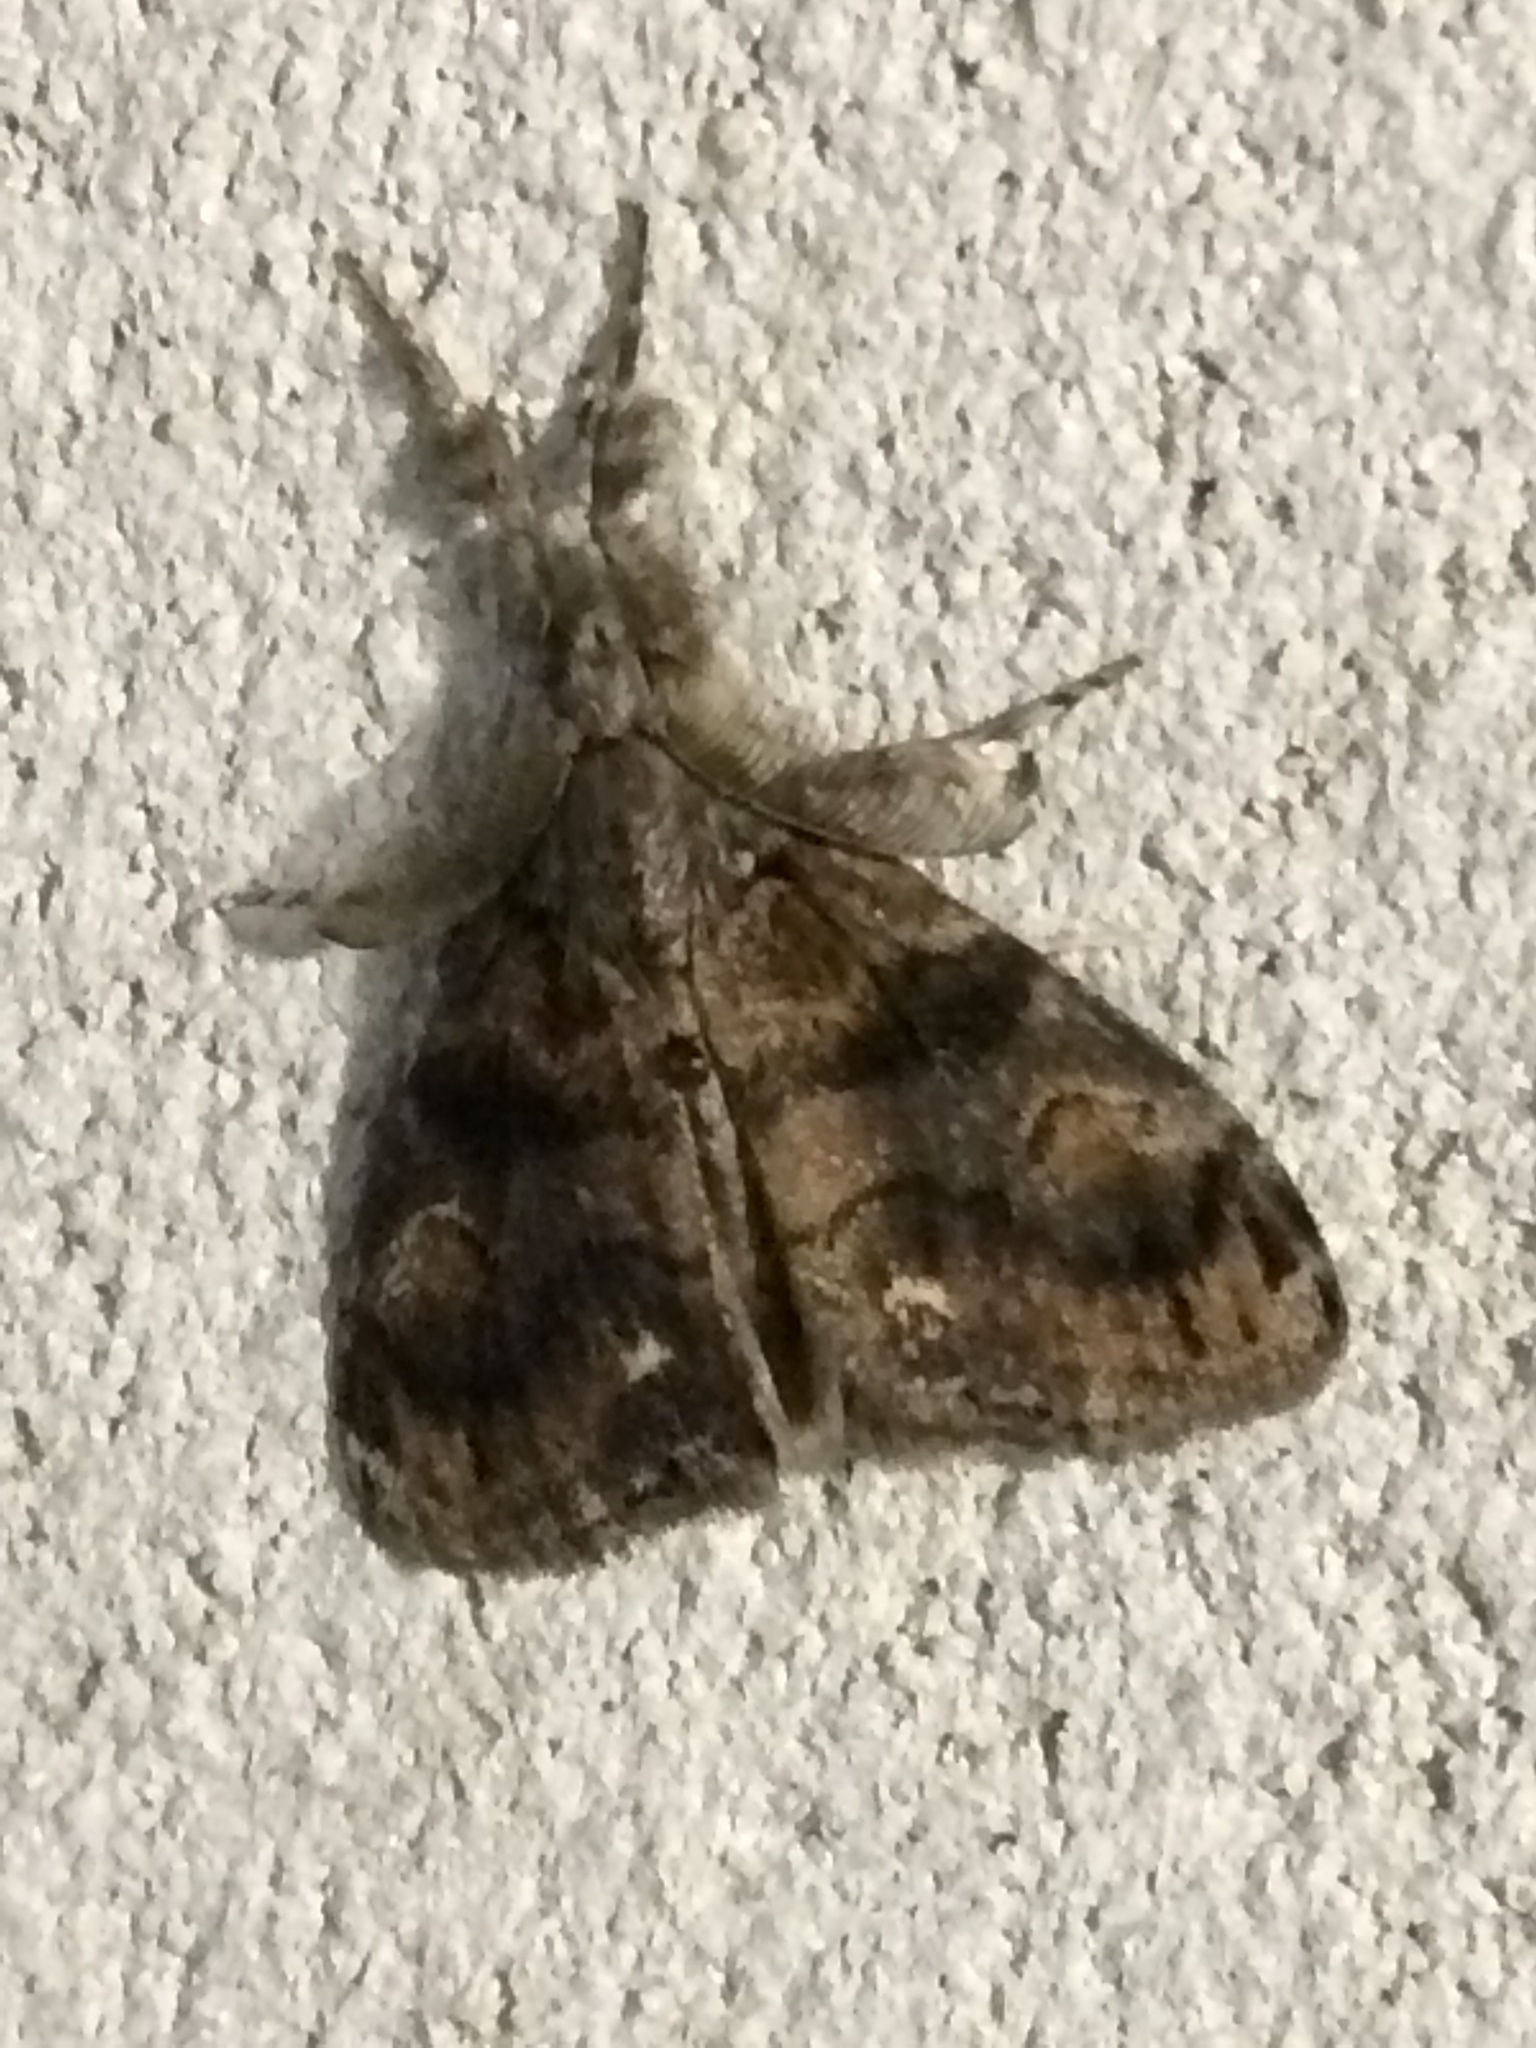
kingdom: Animalia
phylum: Arthropoda
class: Insecta
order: Lepidoptera
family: Erebidae
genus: Orgyia
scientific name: Orgyia definita
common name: Definite tussock moth
